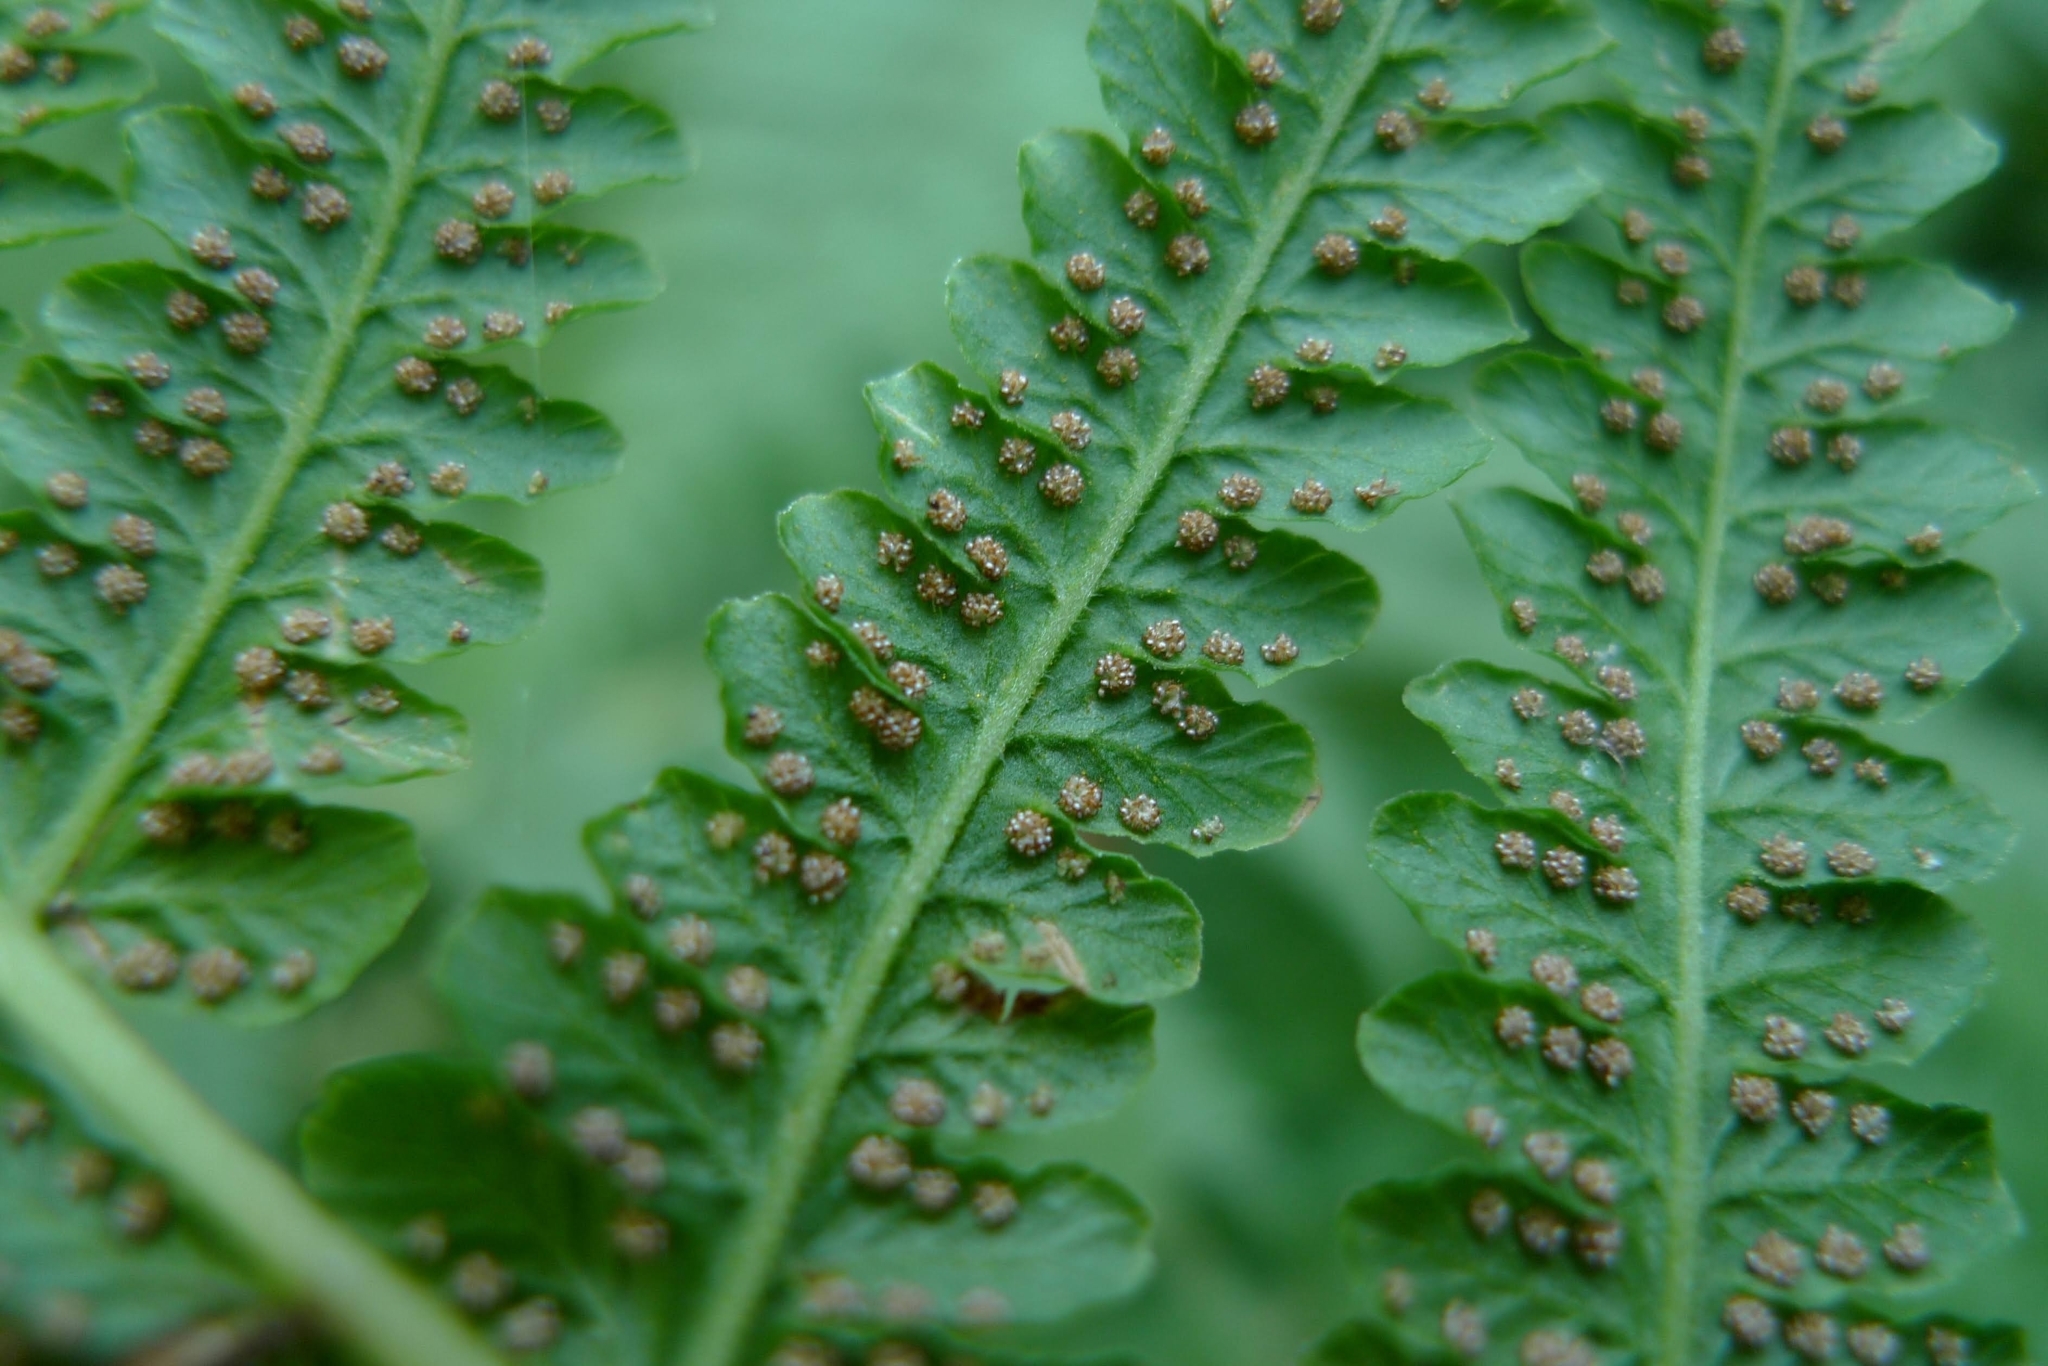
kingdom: Plantae
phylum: Tracheophyta
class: Polypodiopsida
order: Polypodiales
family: Thelypteridaceae
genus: Oreopteris
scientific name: Oreopteris limbosperma
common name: Lemon-scented fern
